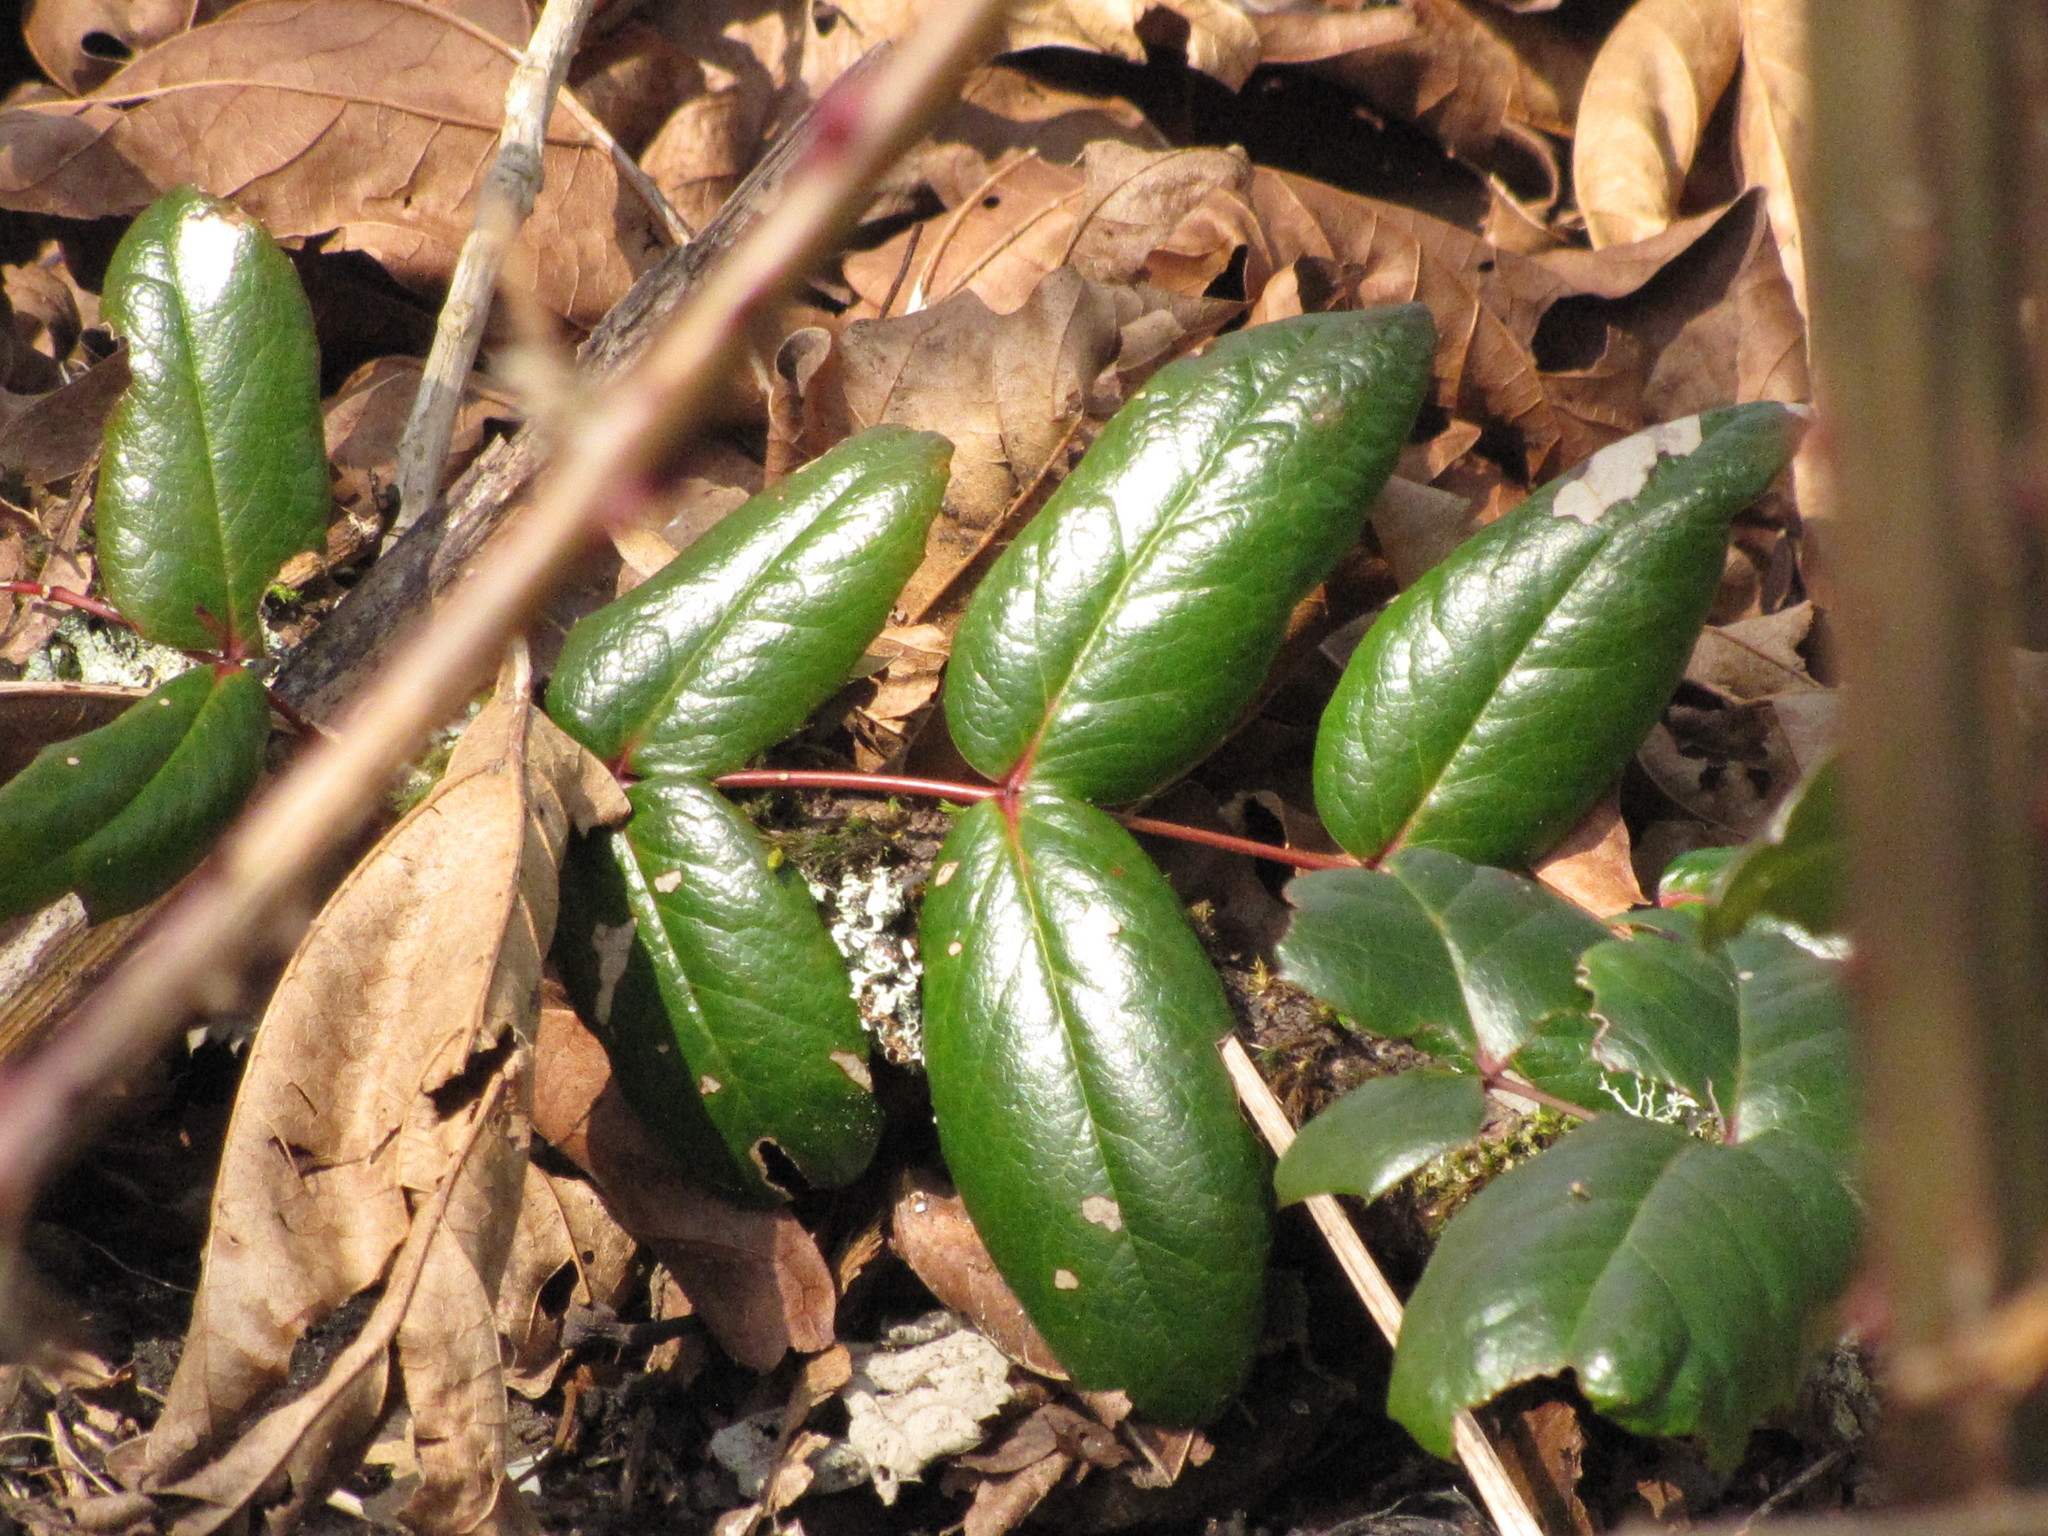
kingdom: Plantae
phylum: Tracheophyta
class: Magnoliopsida
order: Ranunculales
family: Berberidaceae
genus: Mahonia
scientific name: Mahonia aquifolium
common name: Oregon-grape
